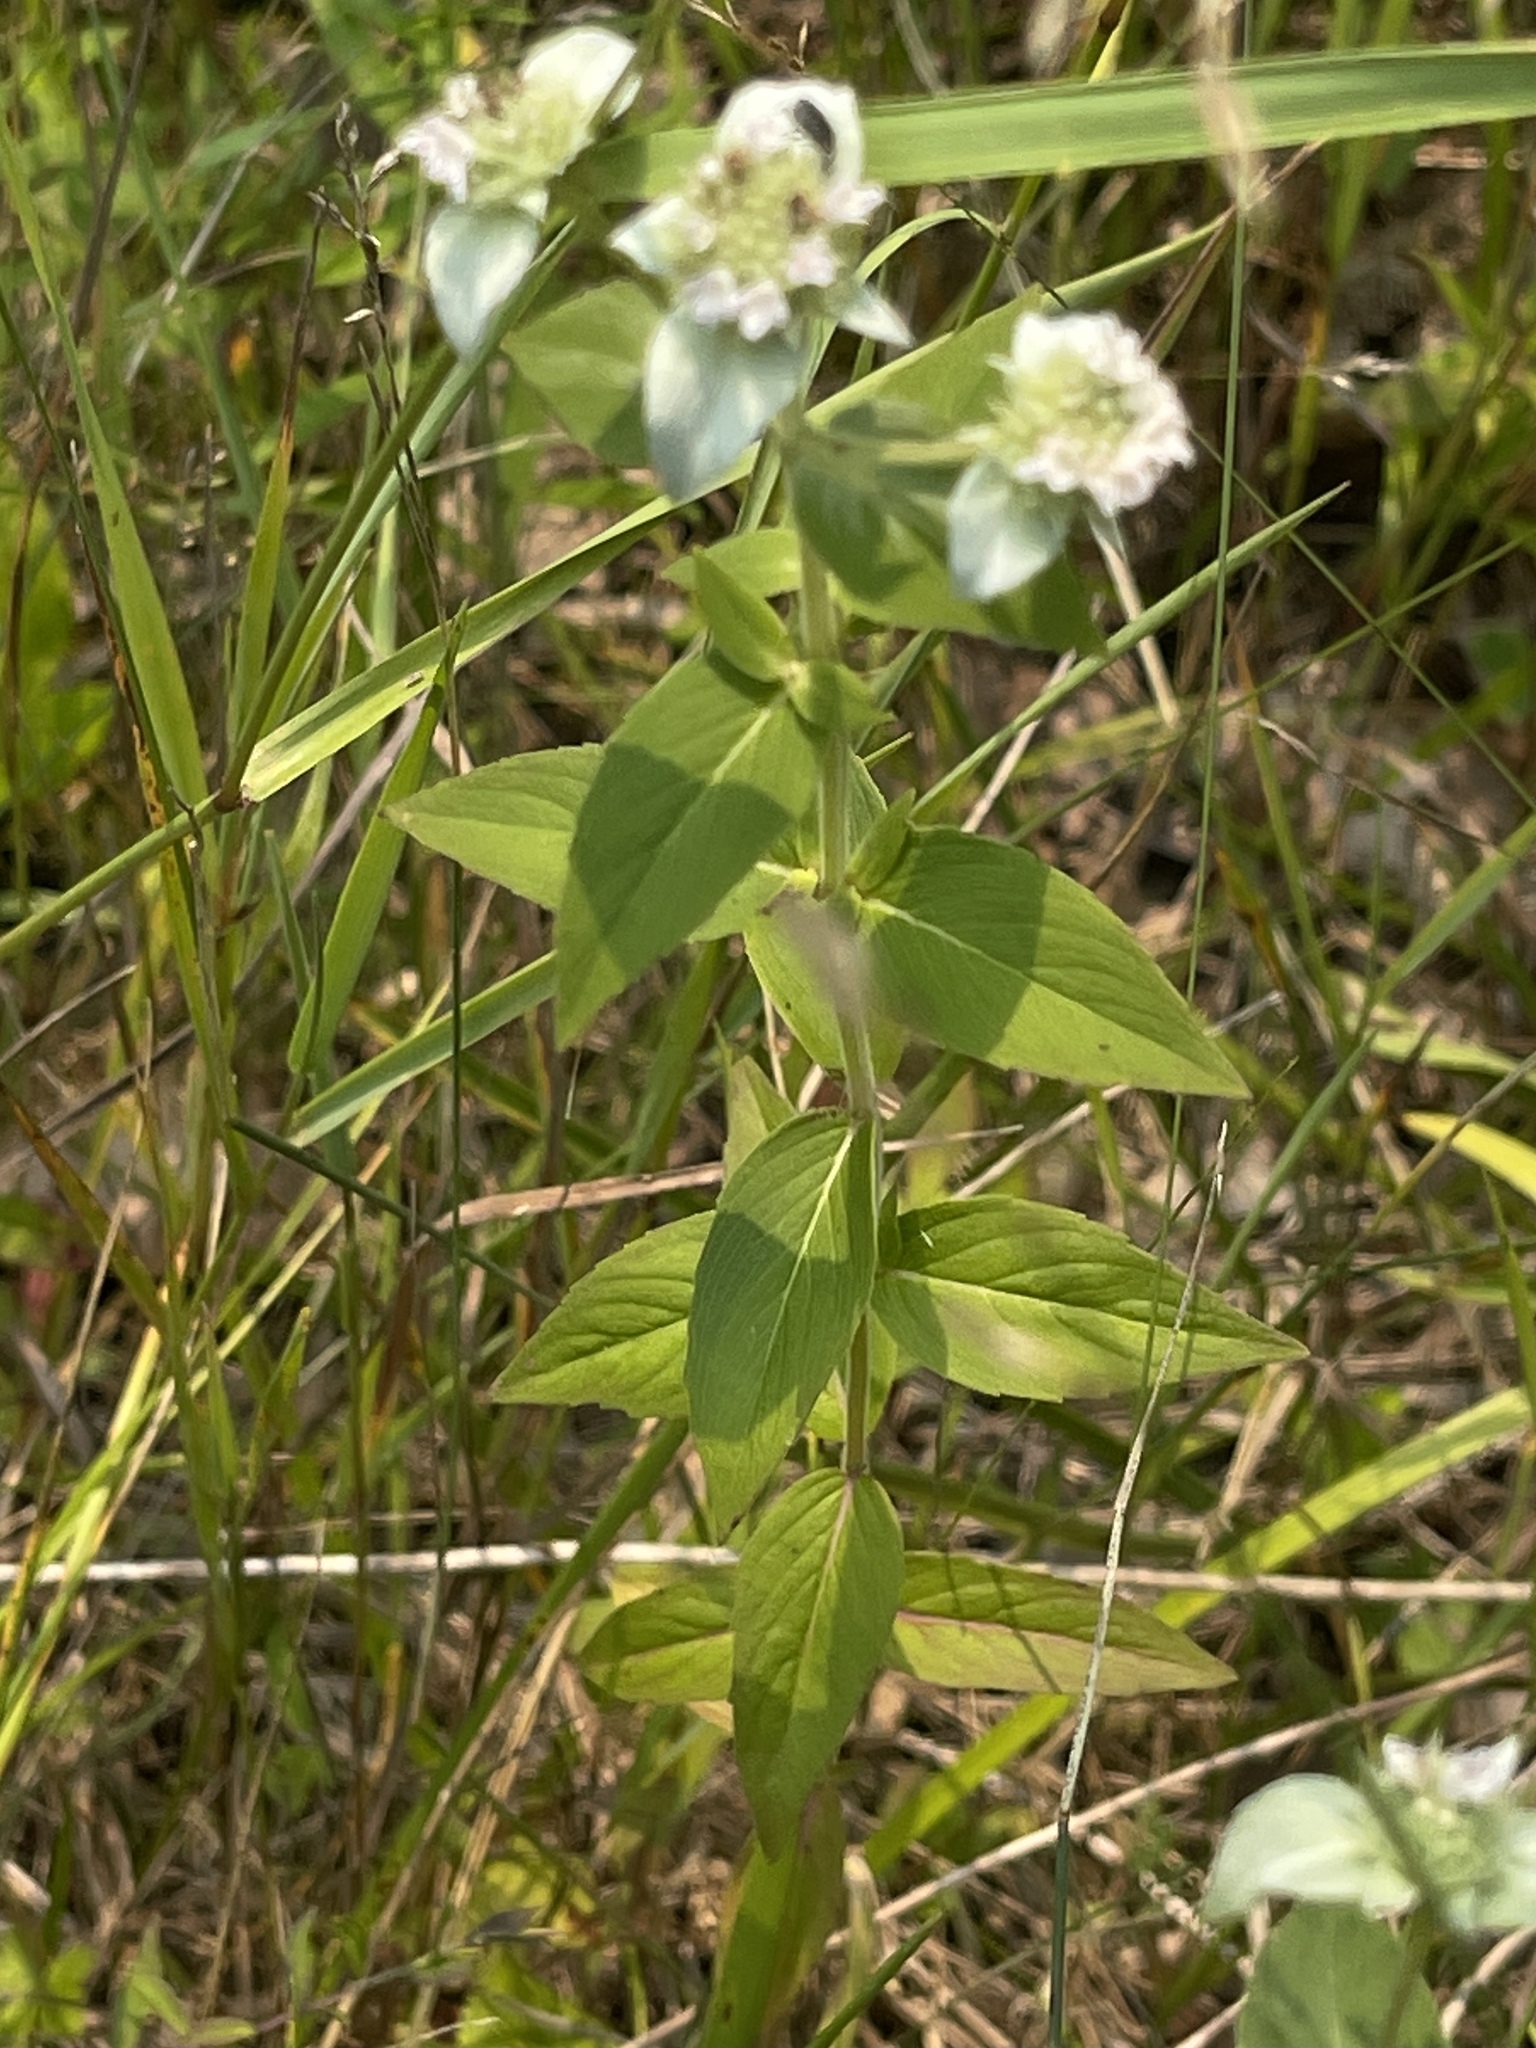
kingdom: Plantae
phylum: Tracheophyta
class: Magnoliopsida
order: Lamiales
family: Lamiaceae
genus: Pycnanthemum
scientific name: Pycnanthemum muticum
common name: Blunt mountain-mint
